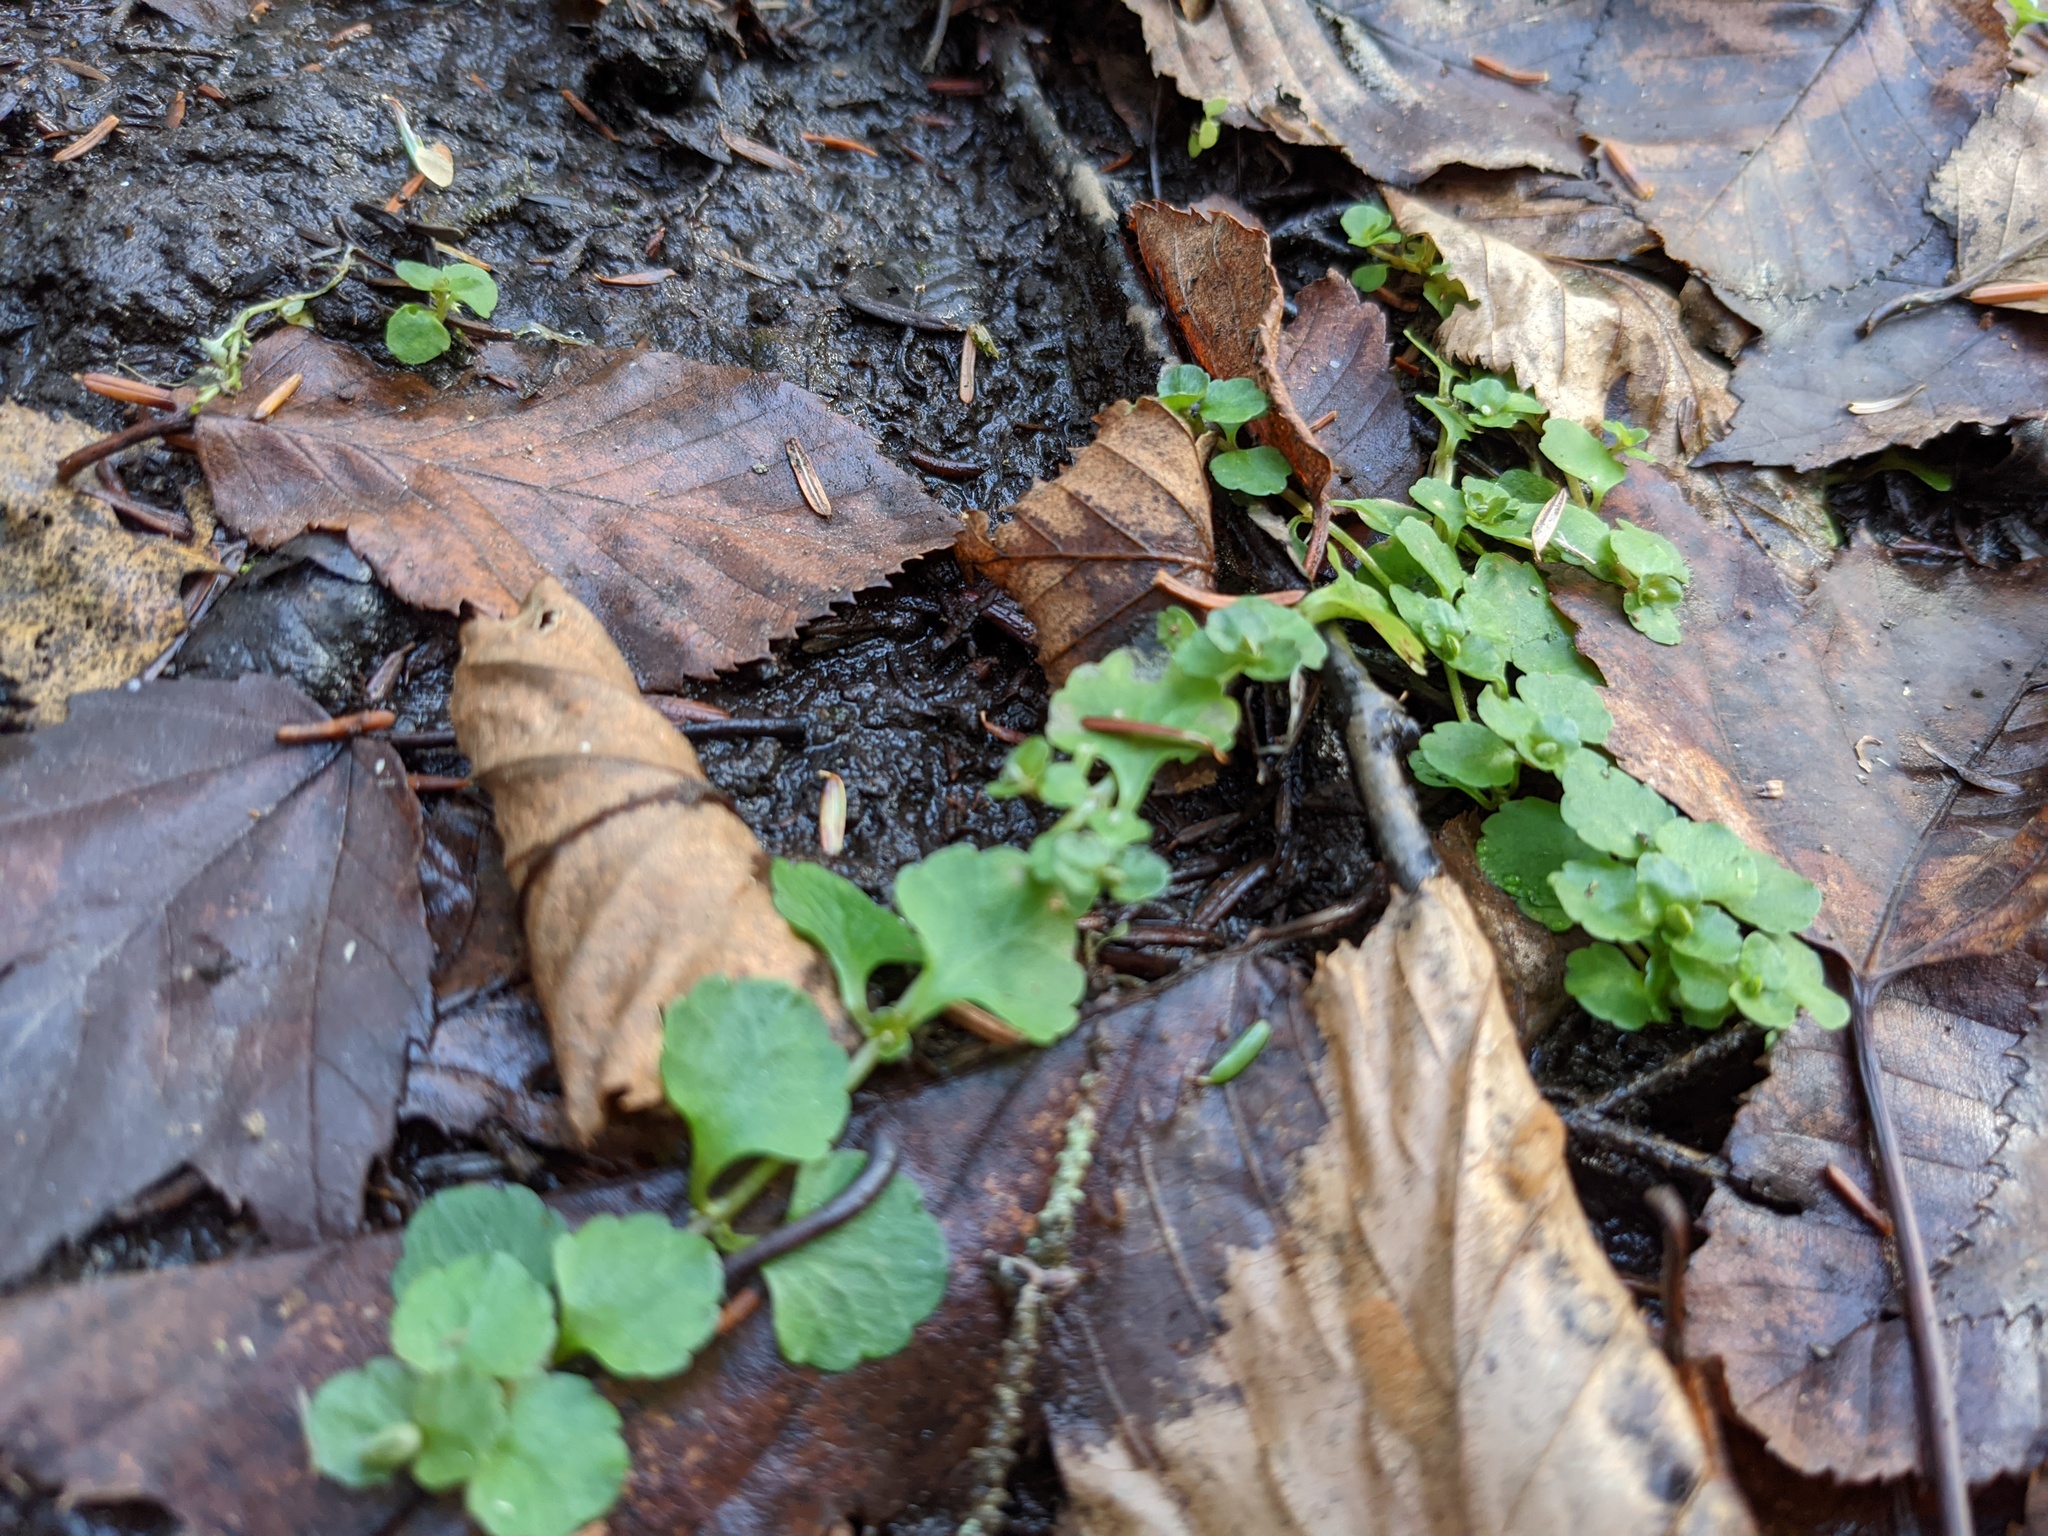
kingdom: Plantae
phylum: Tracheophyta
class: Magnoliopsida
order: Saxifragales
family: Saxifragaceae
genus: Chrysosplenium
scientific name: Chrysosplenium americanum
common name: American golden-saxifrage
